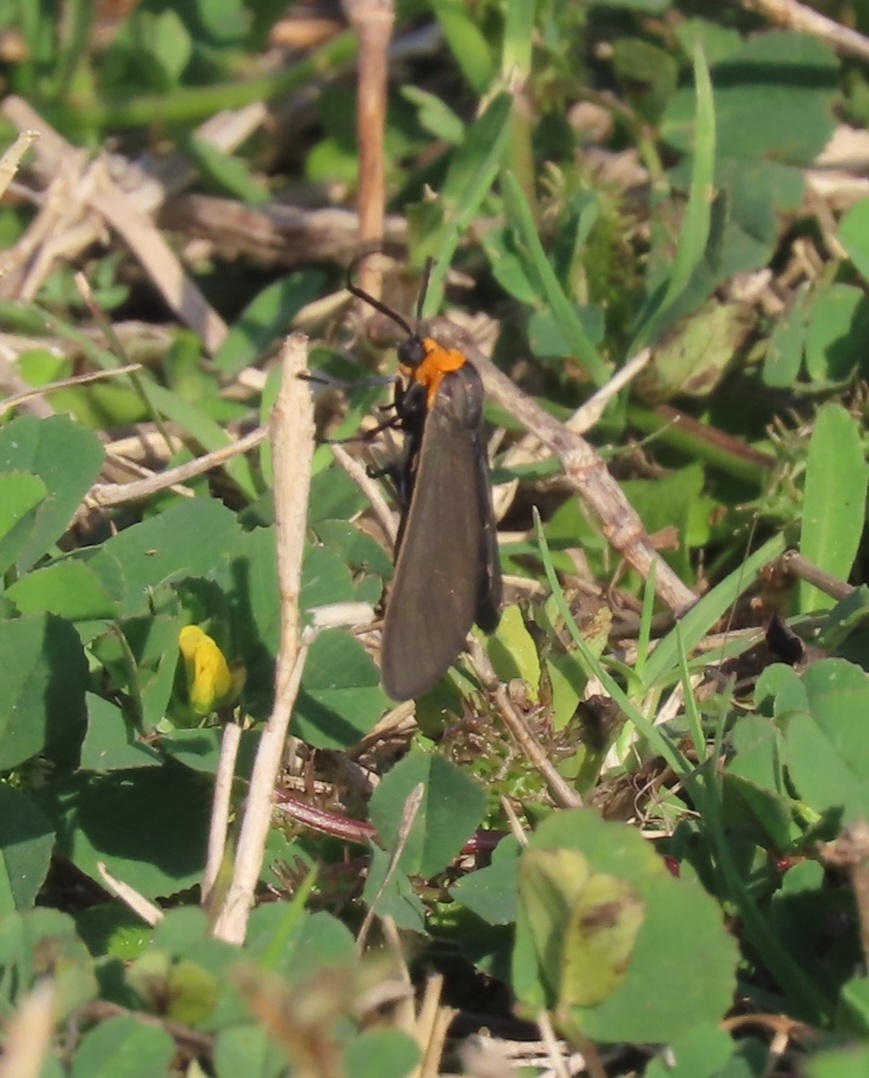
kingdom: Animalia
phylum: Arthropoda
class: Insecta
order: Lepidoptera
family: Erebidae
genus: Cisseps
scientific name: Cisseps fulvicollis
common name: Yellow-collared scape moth
